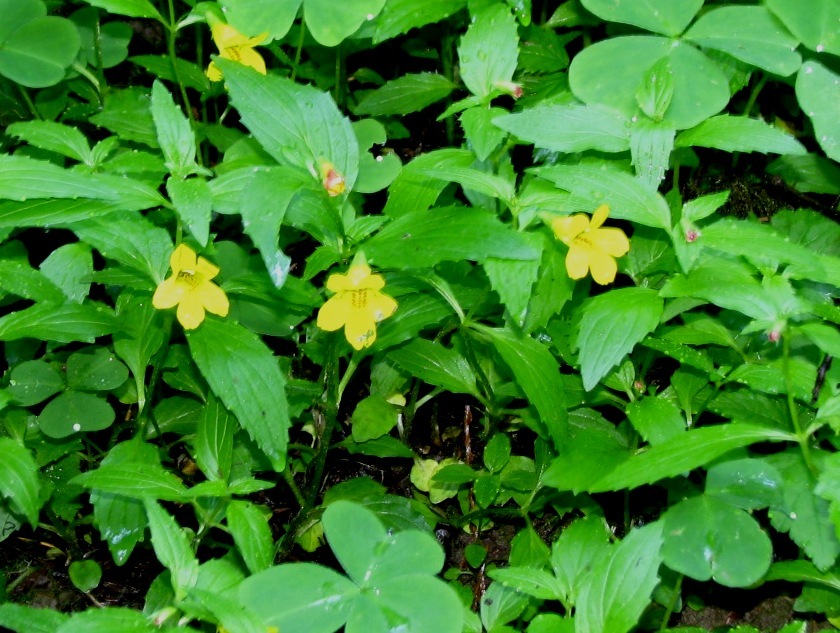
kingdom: Plantae
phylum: Tracheophyta
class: Magnoliopsida
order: Lamiales
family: Phrymaceae
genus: Erythranthe
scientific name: Erythranthe dentata
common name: Coastal monkeyflower
